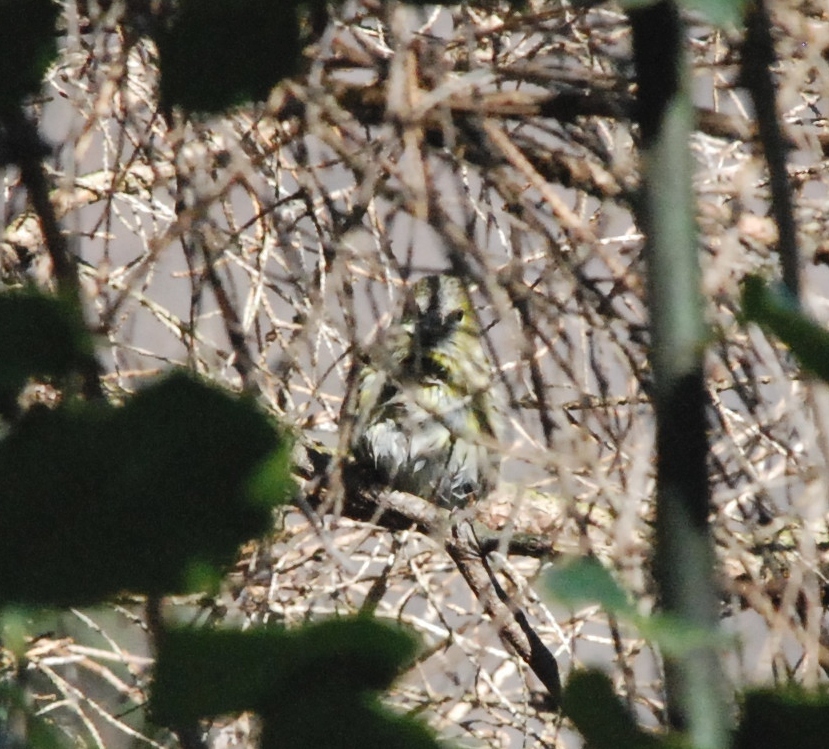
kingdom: Animalia
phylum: Chordata
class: Aves
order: Passeriformes
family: Fringillidae
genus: Spinus
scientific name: Spinus spinus
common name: Eurasian siskin
